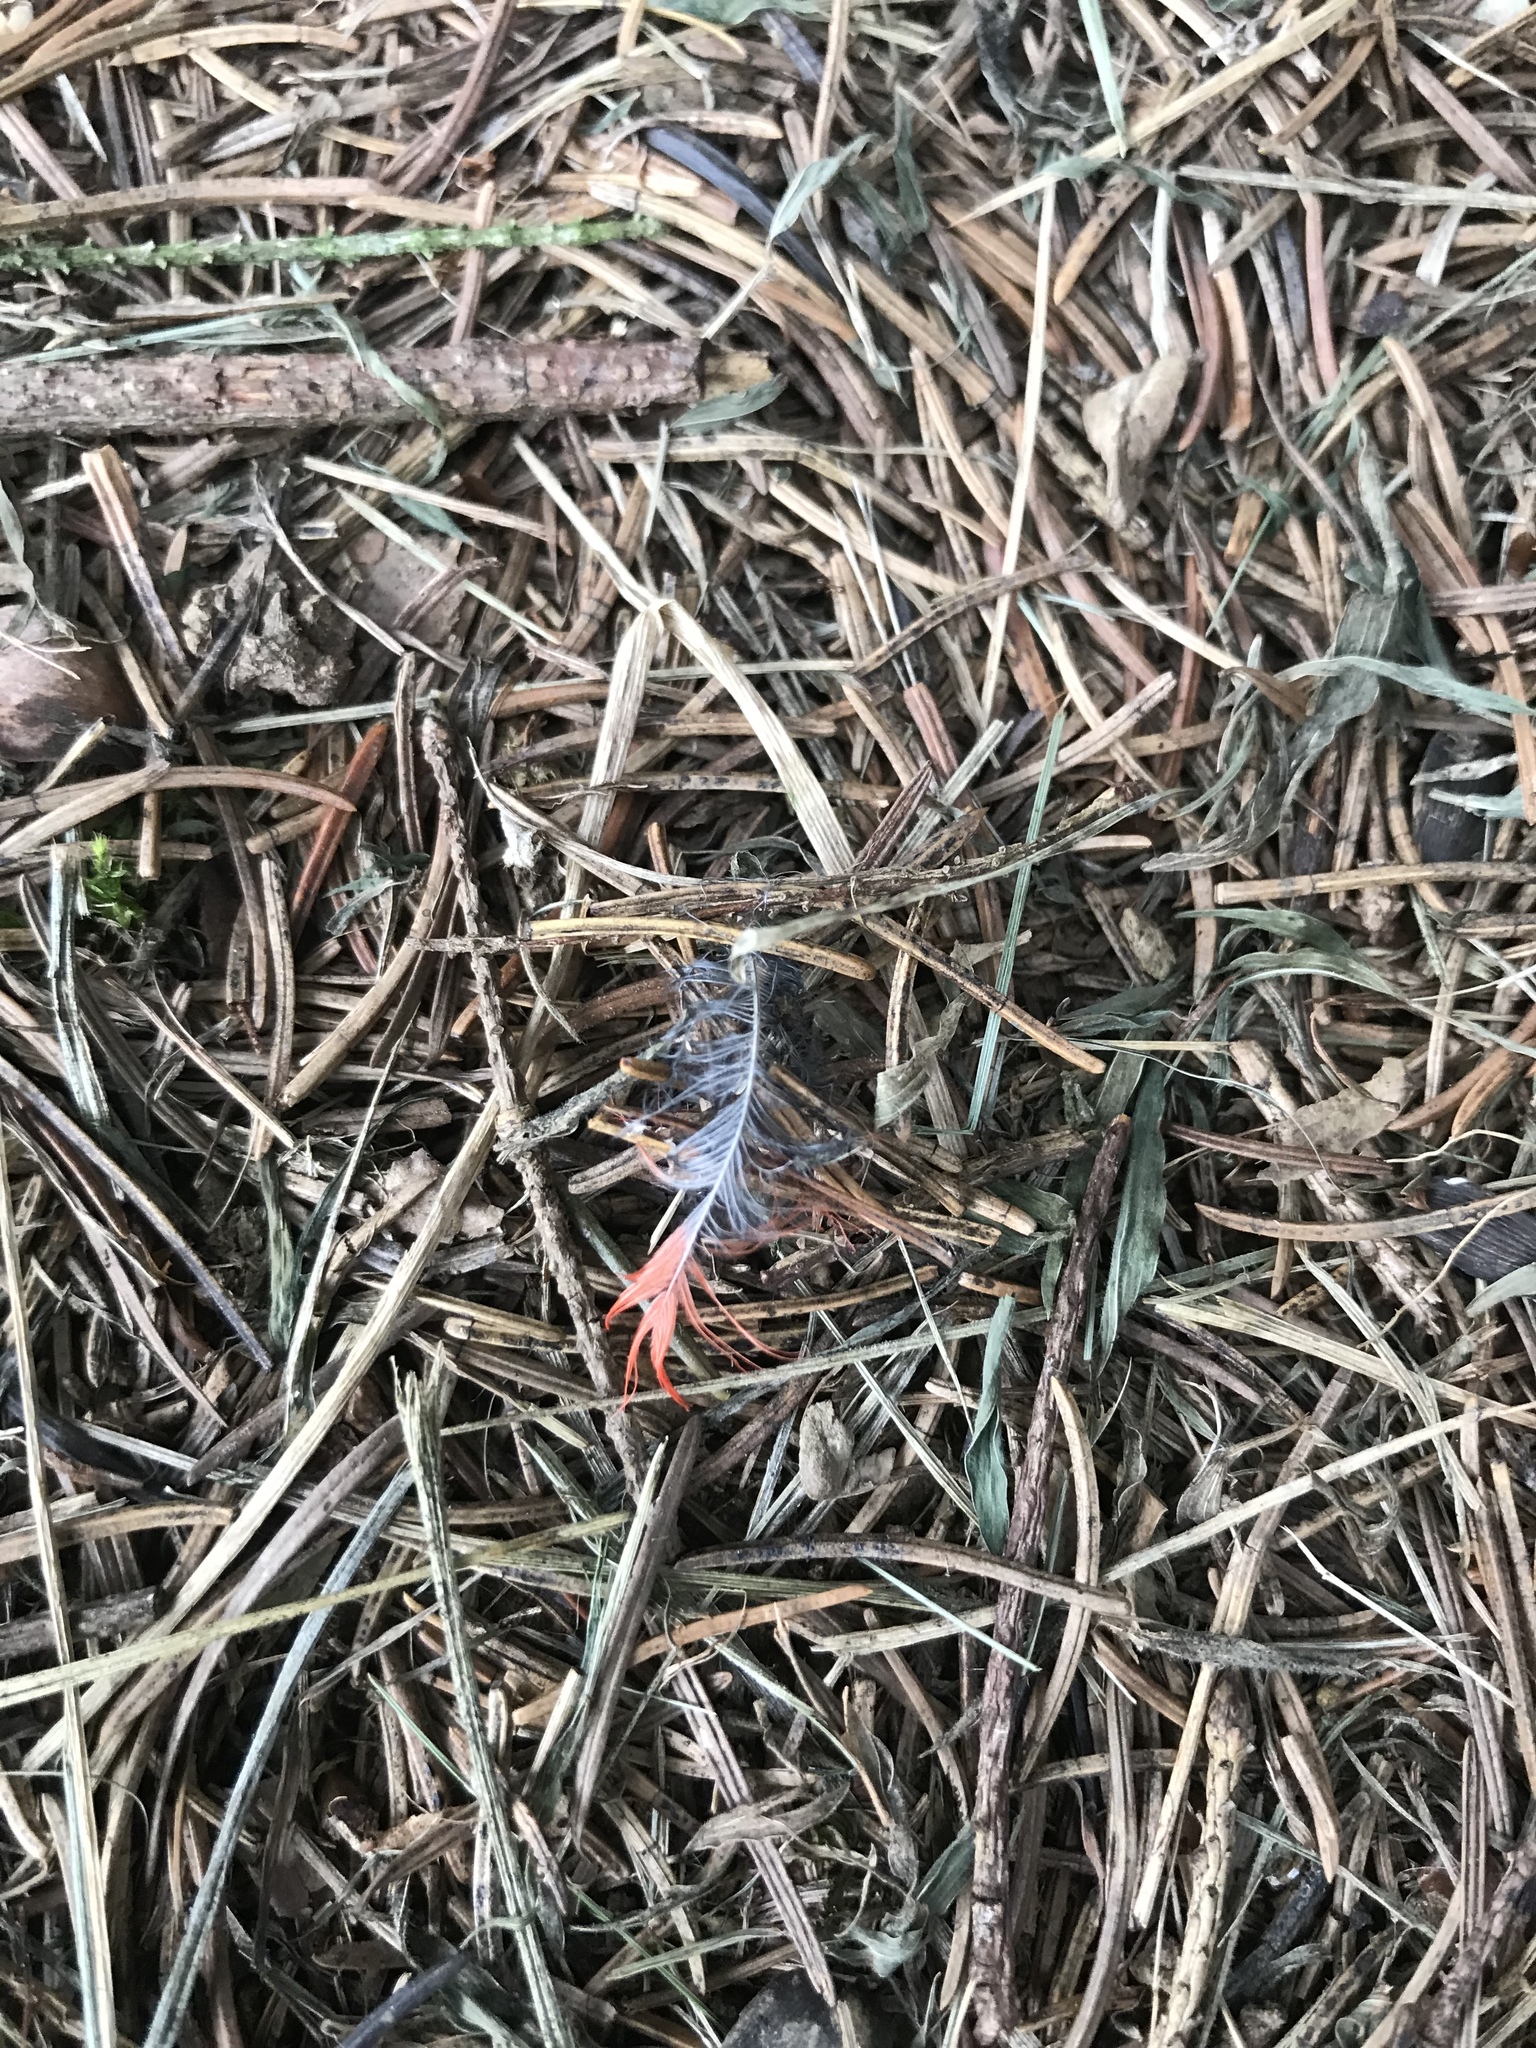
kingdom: Animalia
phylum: Chordata
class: Aves
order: Passeriformes
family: Cardinalidae
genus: Cardinalis
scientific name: Cardinalis cardinalis
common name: Northern cardinal
